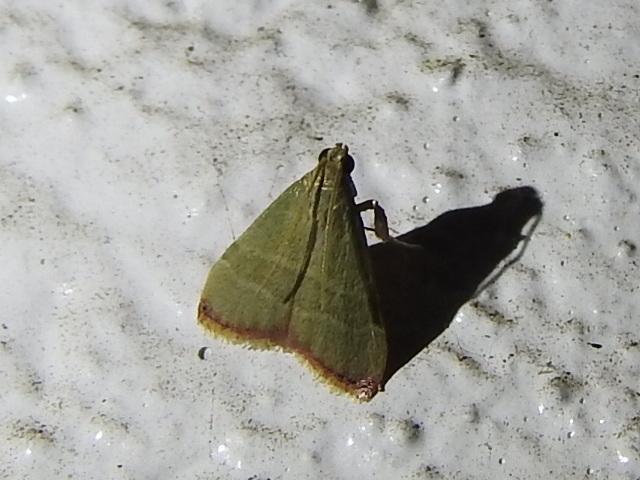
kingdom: Animalia
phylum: Arthropoda
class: Insecta
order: Lepidoptera
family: Pyralidae
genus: Arta
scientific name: Arta olivalis
